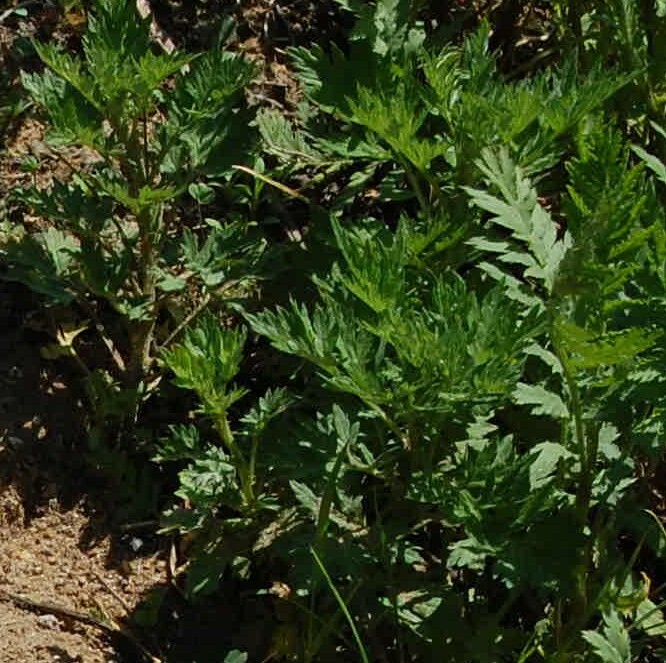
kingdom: Plantae
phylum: Tracheophyta
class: Magnoliopsida
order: Asterales
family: Asteraceae
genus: Artemisia
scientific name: Artemisia vulgaris
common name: Mugwort
